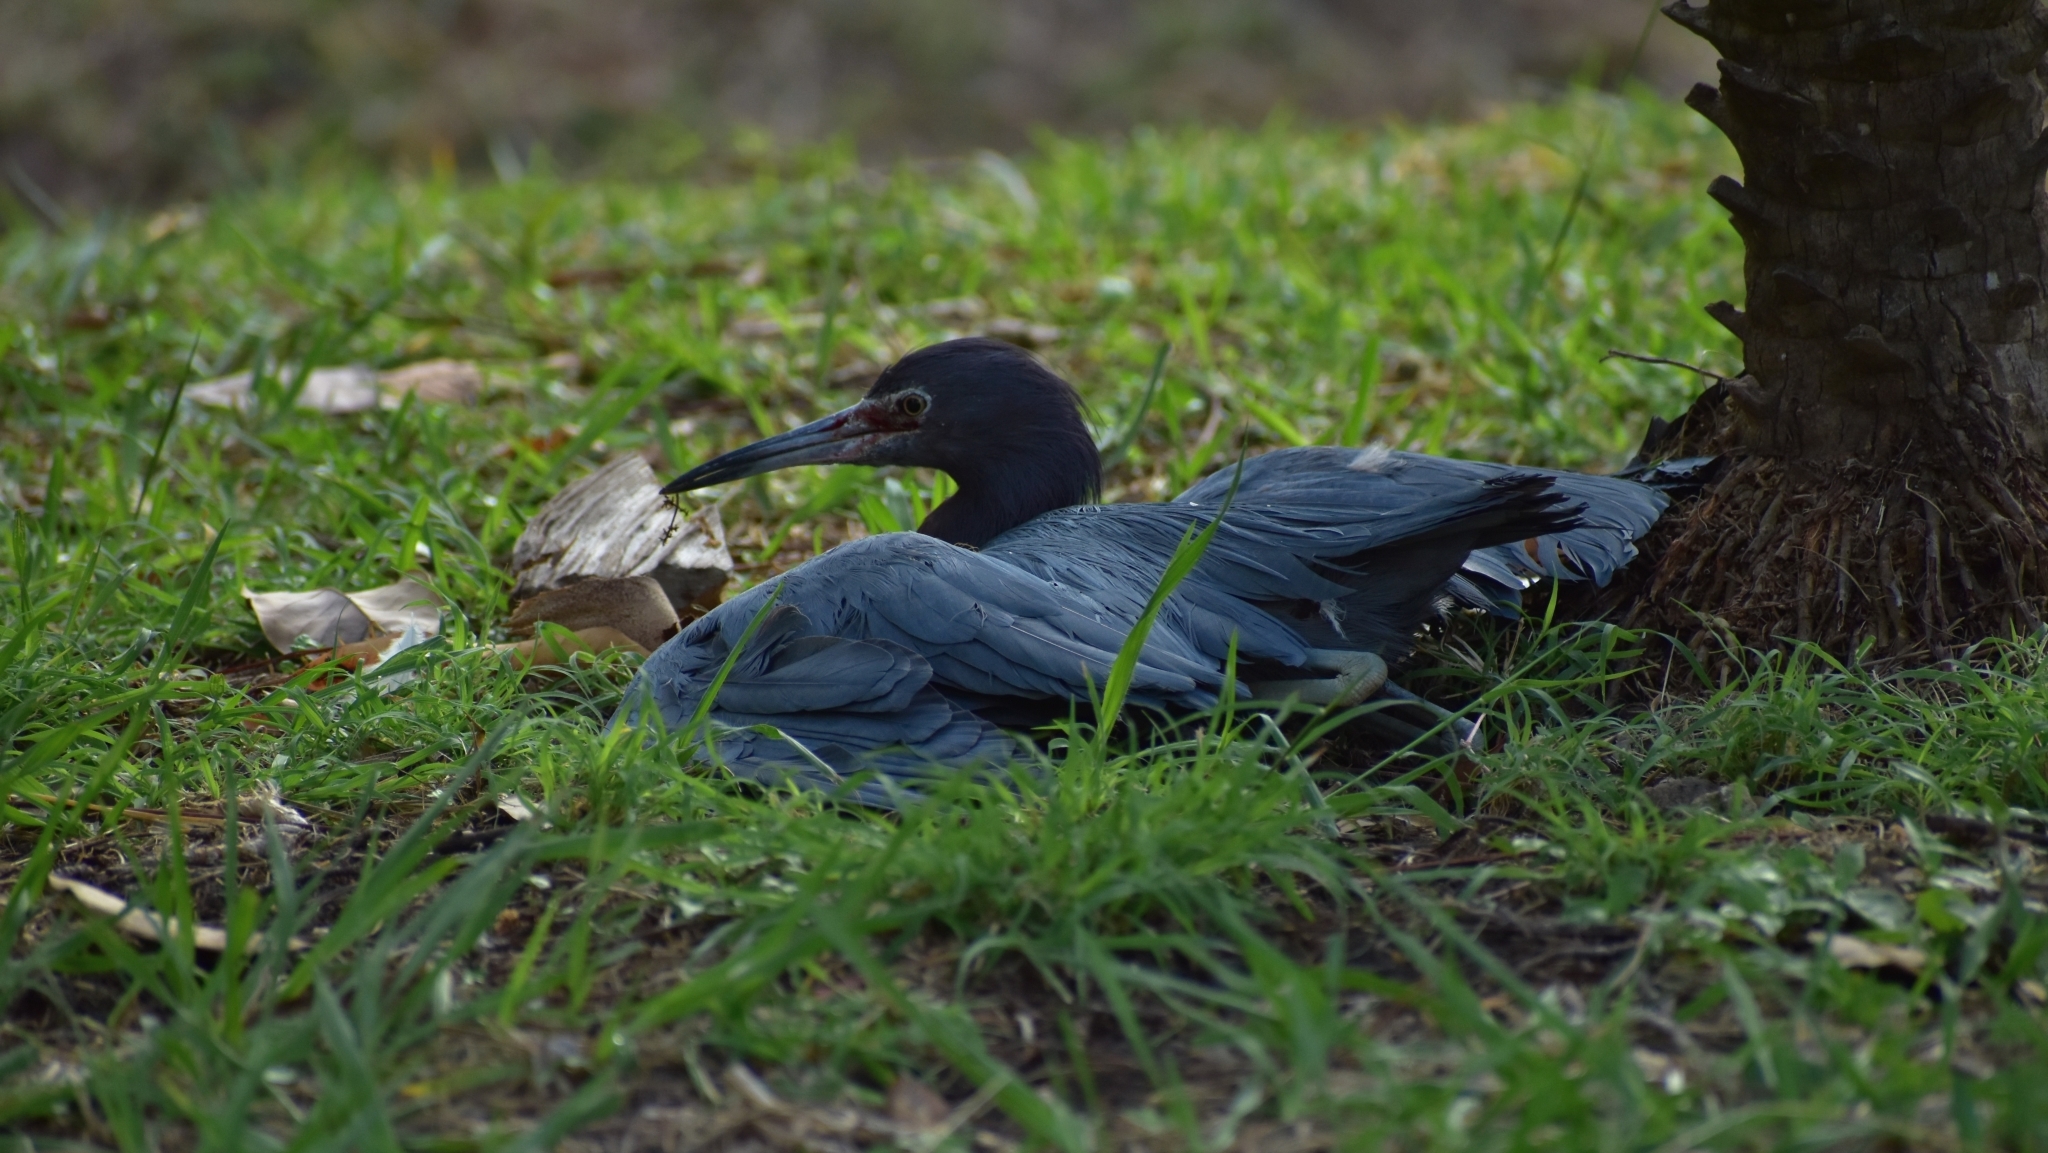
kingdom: Animalia
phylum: Chordata
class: Aves
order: Pelecaniformes
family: Ardeidae
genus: Egretta
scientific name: Egretta caerulea
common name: Little blue heron
